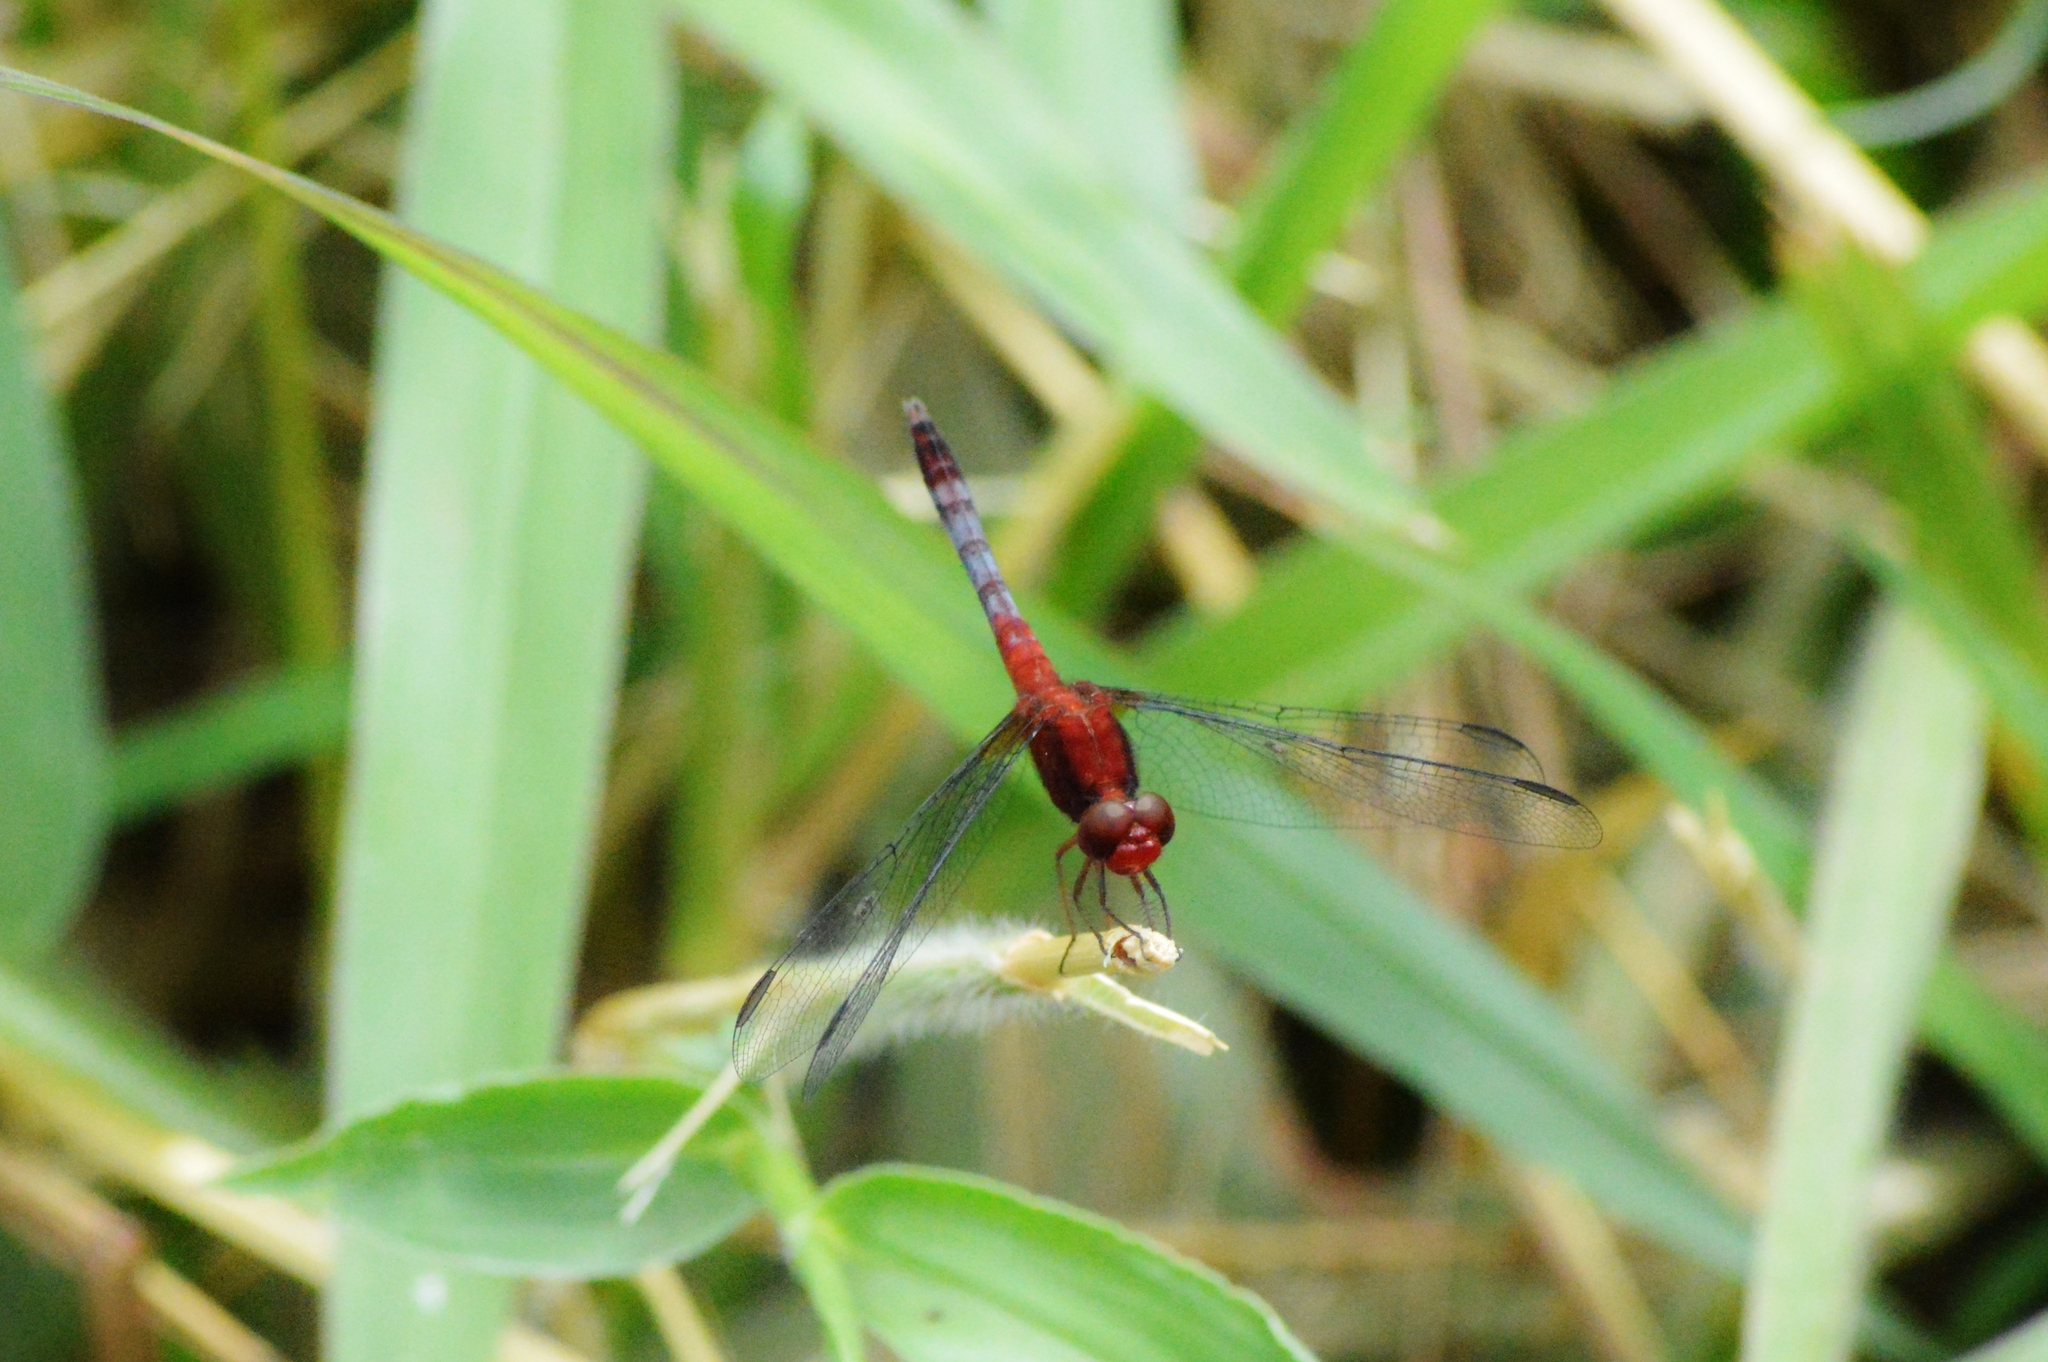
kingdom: Animalia
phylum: Arthropoda
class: Insecta
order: Odonata
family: Libellulidae
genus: Erythrodiplax
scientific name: Erythrodiplax fusca
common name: Red-faced dragonlet
